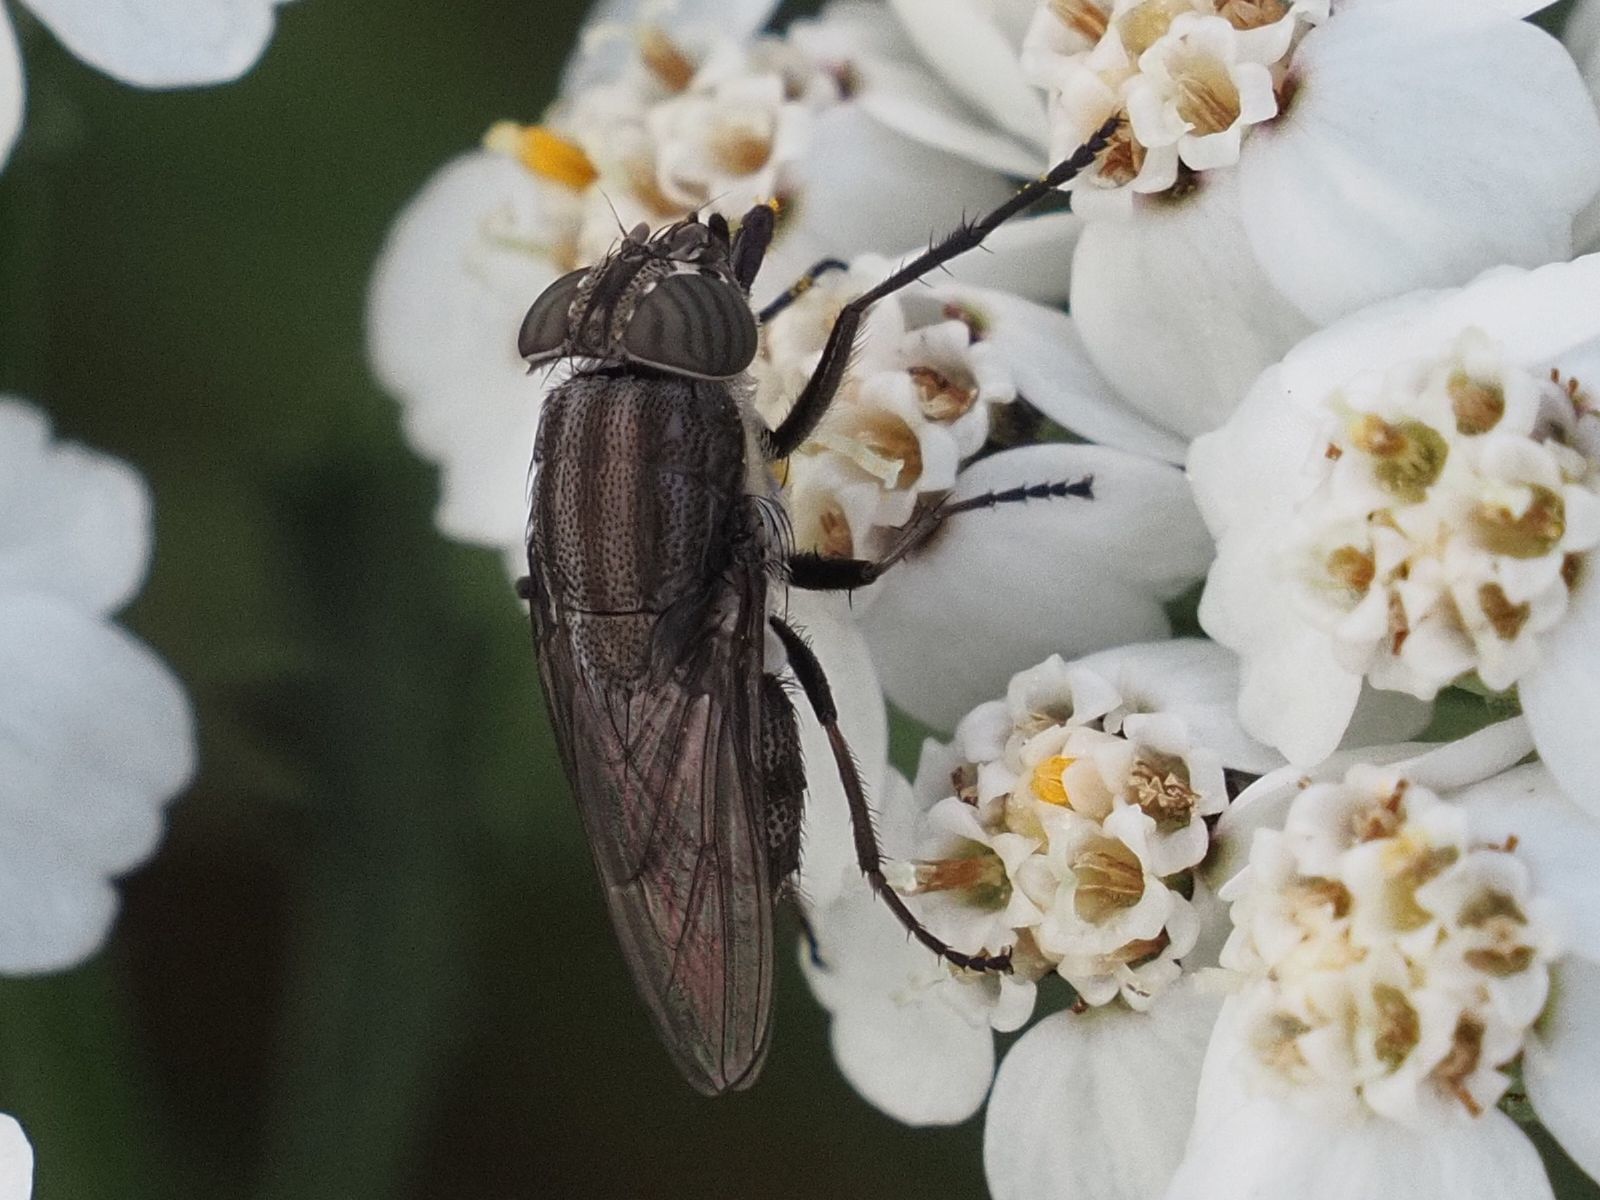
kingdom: Animalia
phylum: Arthropoda
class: Insecta
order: Diptera
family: Calliphoridae
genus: Stomorhina
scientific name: Stomorhina lunata
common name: Locust blowfly
